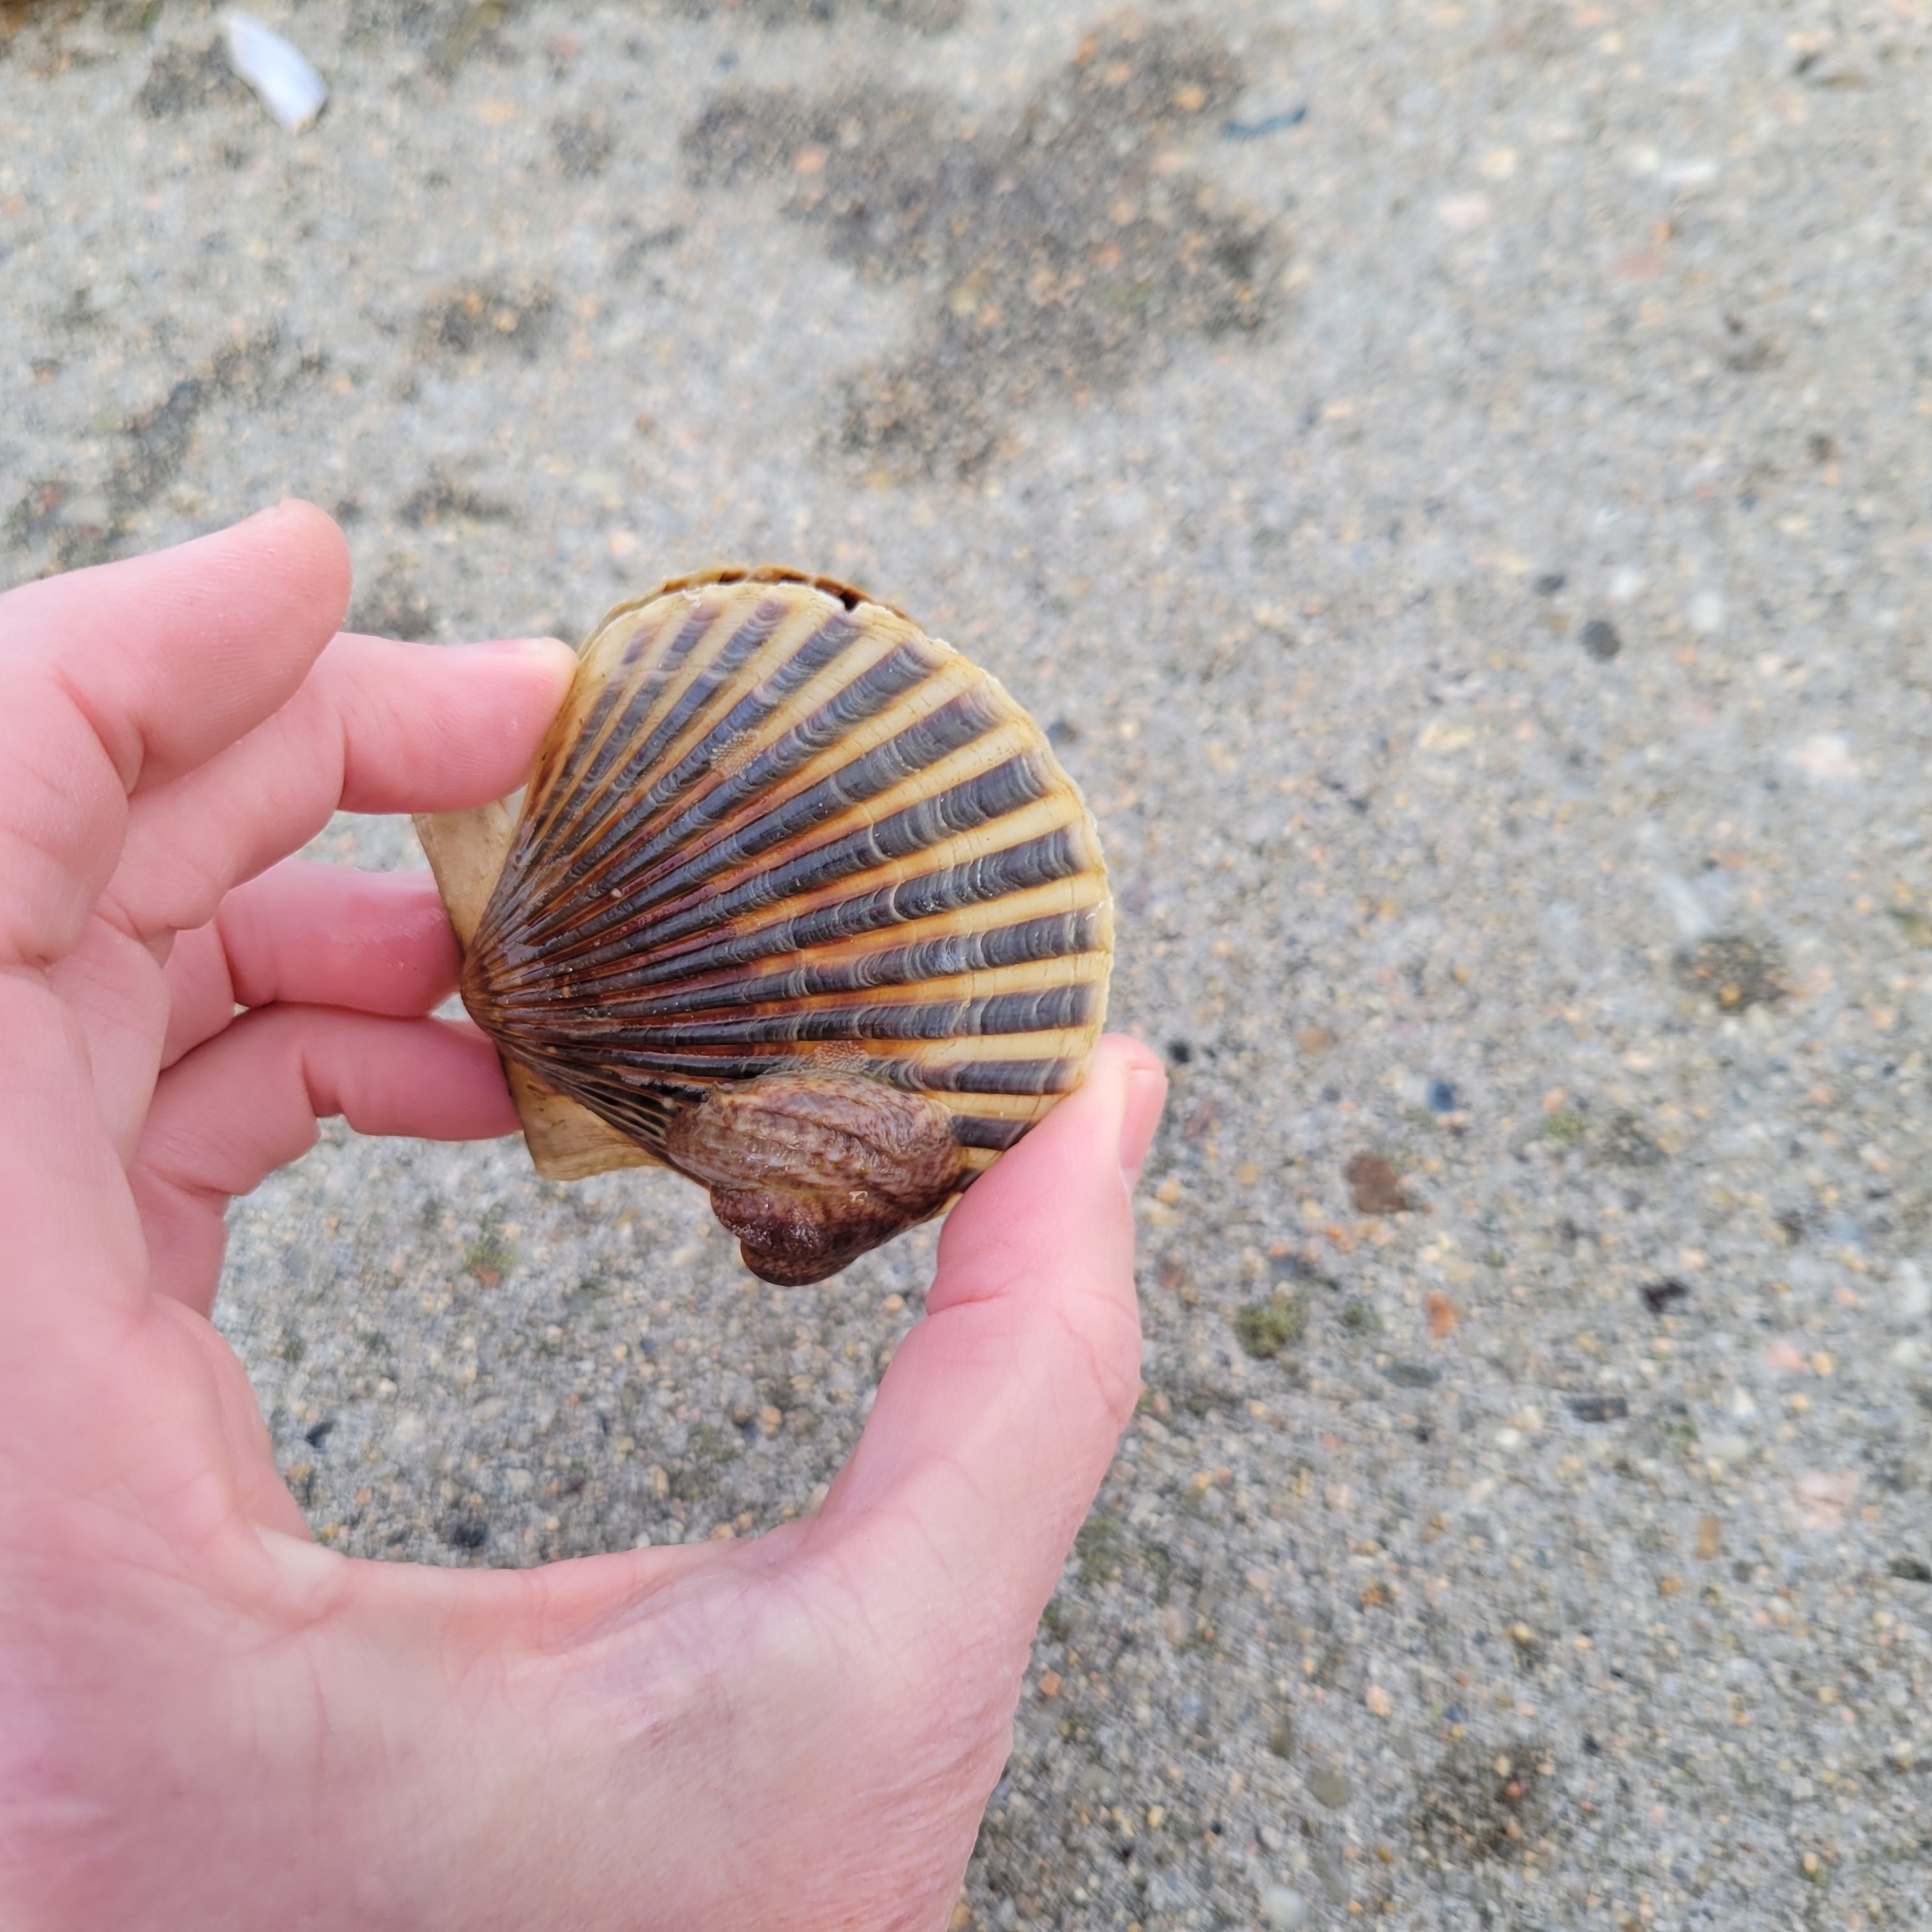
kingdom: Animalia
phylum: Mollusca
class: Bivalvia
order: Pectinida
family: Pectinidae
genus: Argopecten
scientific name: Argopecten irradians
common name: Atlantic bay scallop
